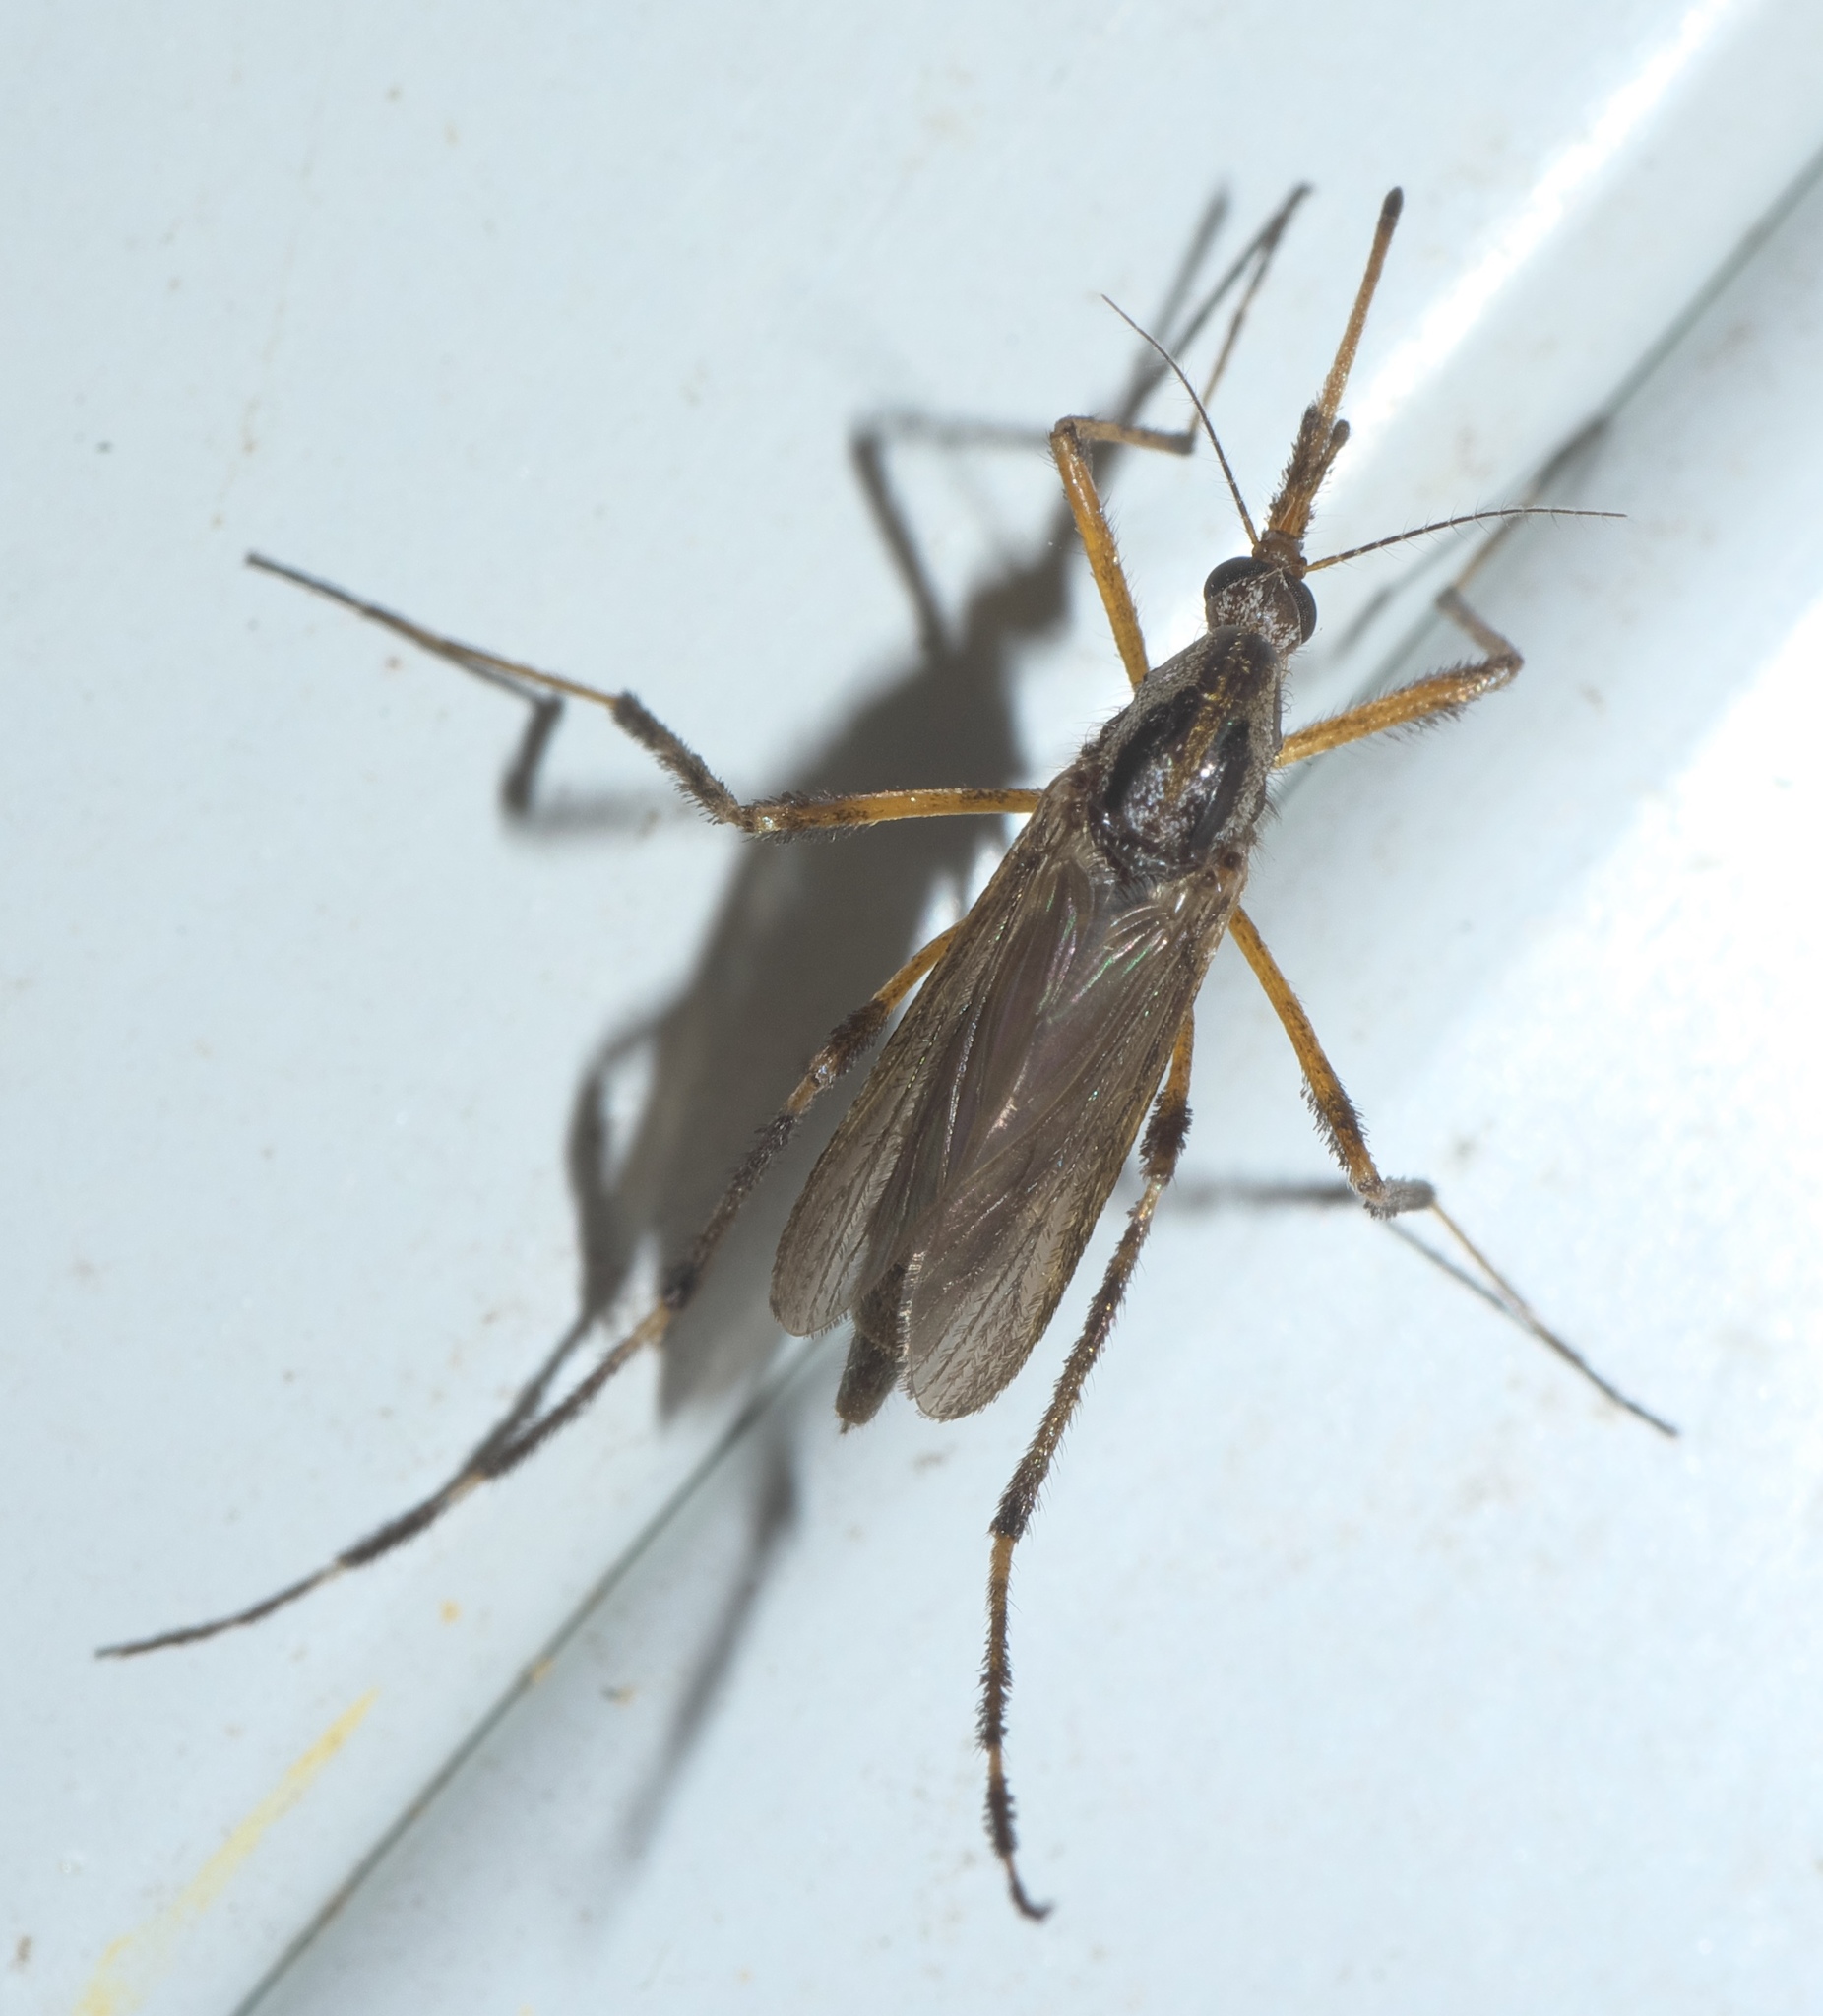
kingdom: Animalia
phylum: Arthropoda
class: Insecta
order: Diptera
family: Culicidae
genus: Psorophora
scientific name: Psorophora ciliata
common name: Gallinipper
